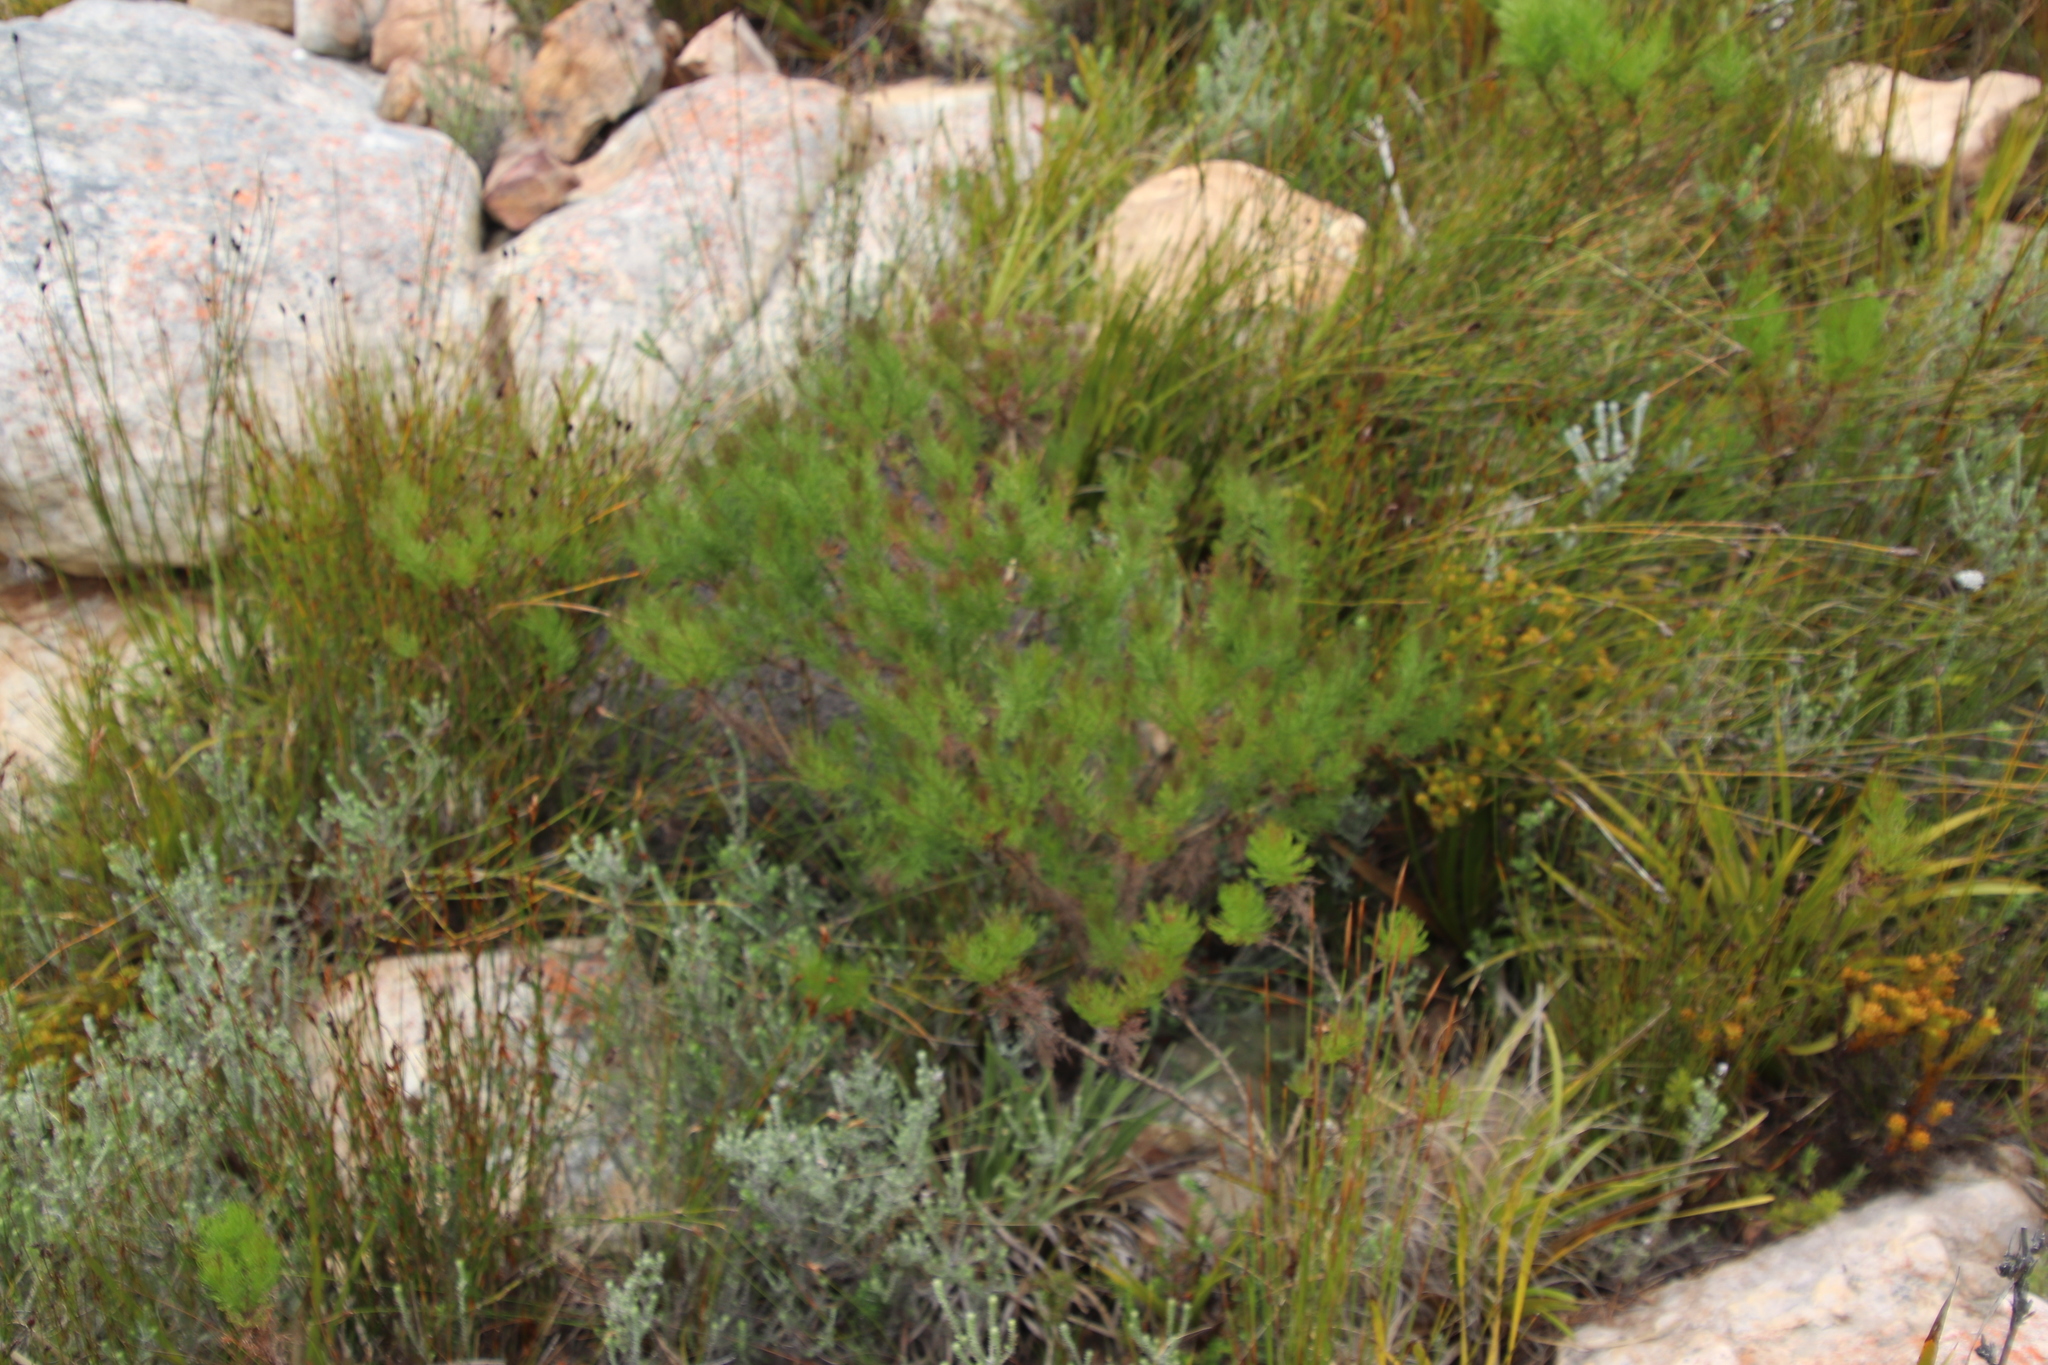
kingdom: Plantae
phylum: Tracheophyta
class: Magnoliopsida
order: Asterales
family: Asteraceae
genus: Euryops
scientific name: Euryops abrotanifolius
